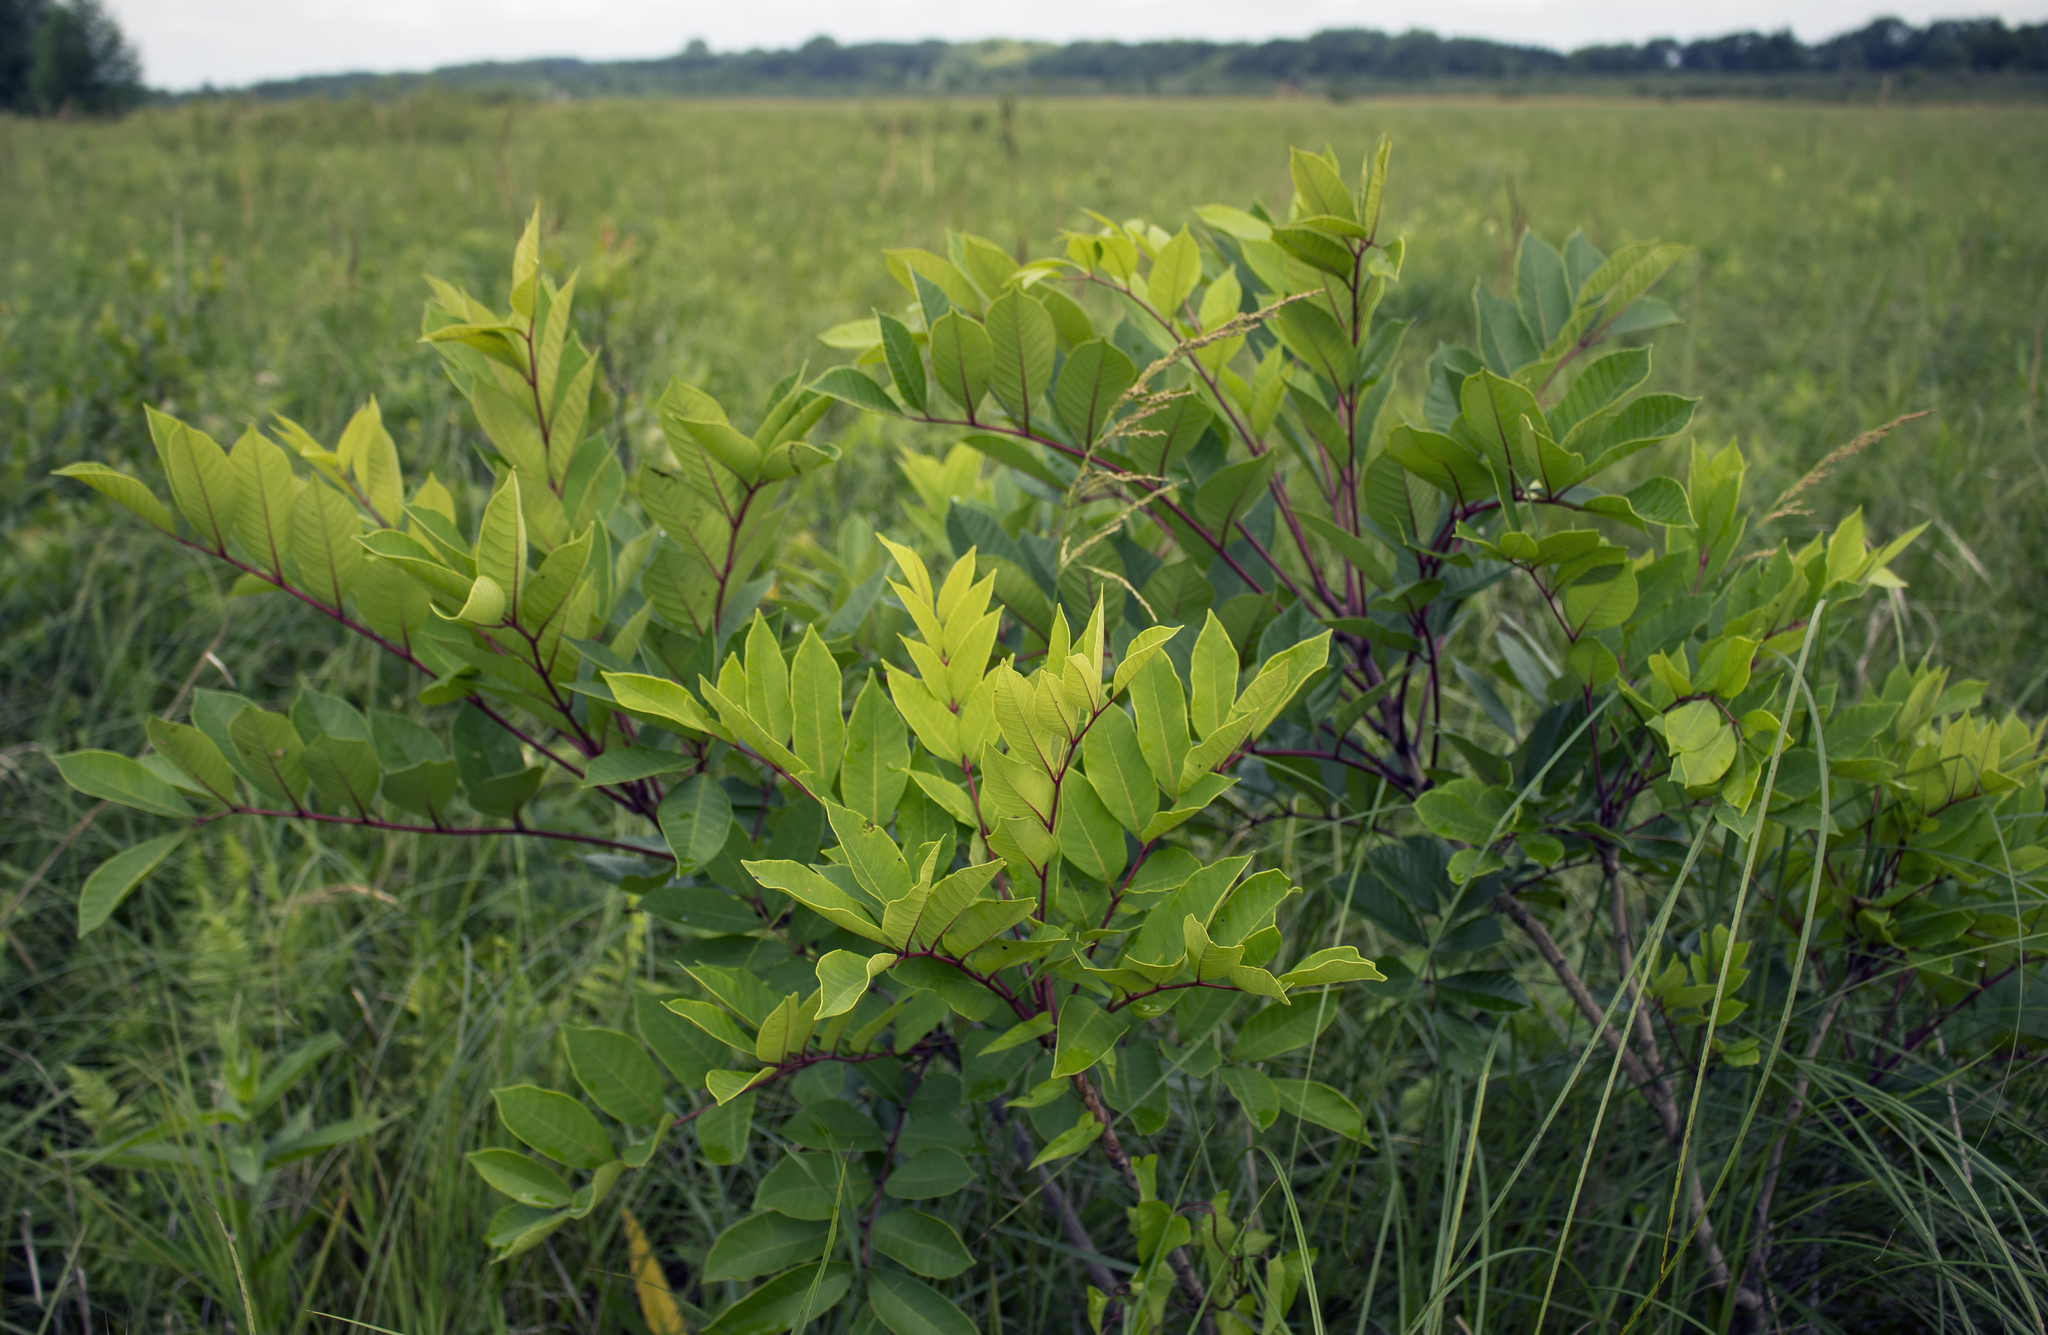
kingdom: Plantae
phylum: Tracheophyta
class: Magnoliopsida
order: Sapindales
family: Anacardiaceae
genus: Toxicodendron
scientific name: Toxicodendron vernix
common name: Poison sumac
